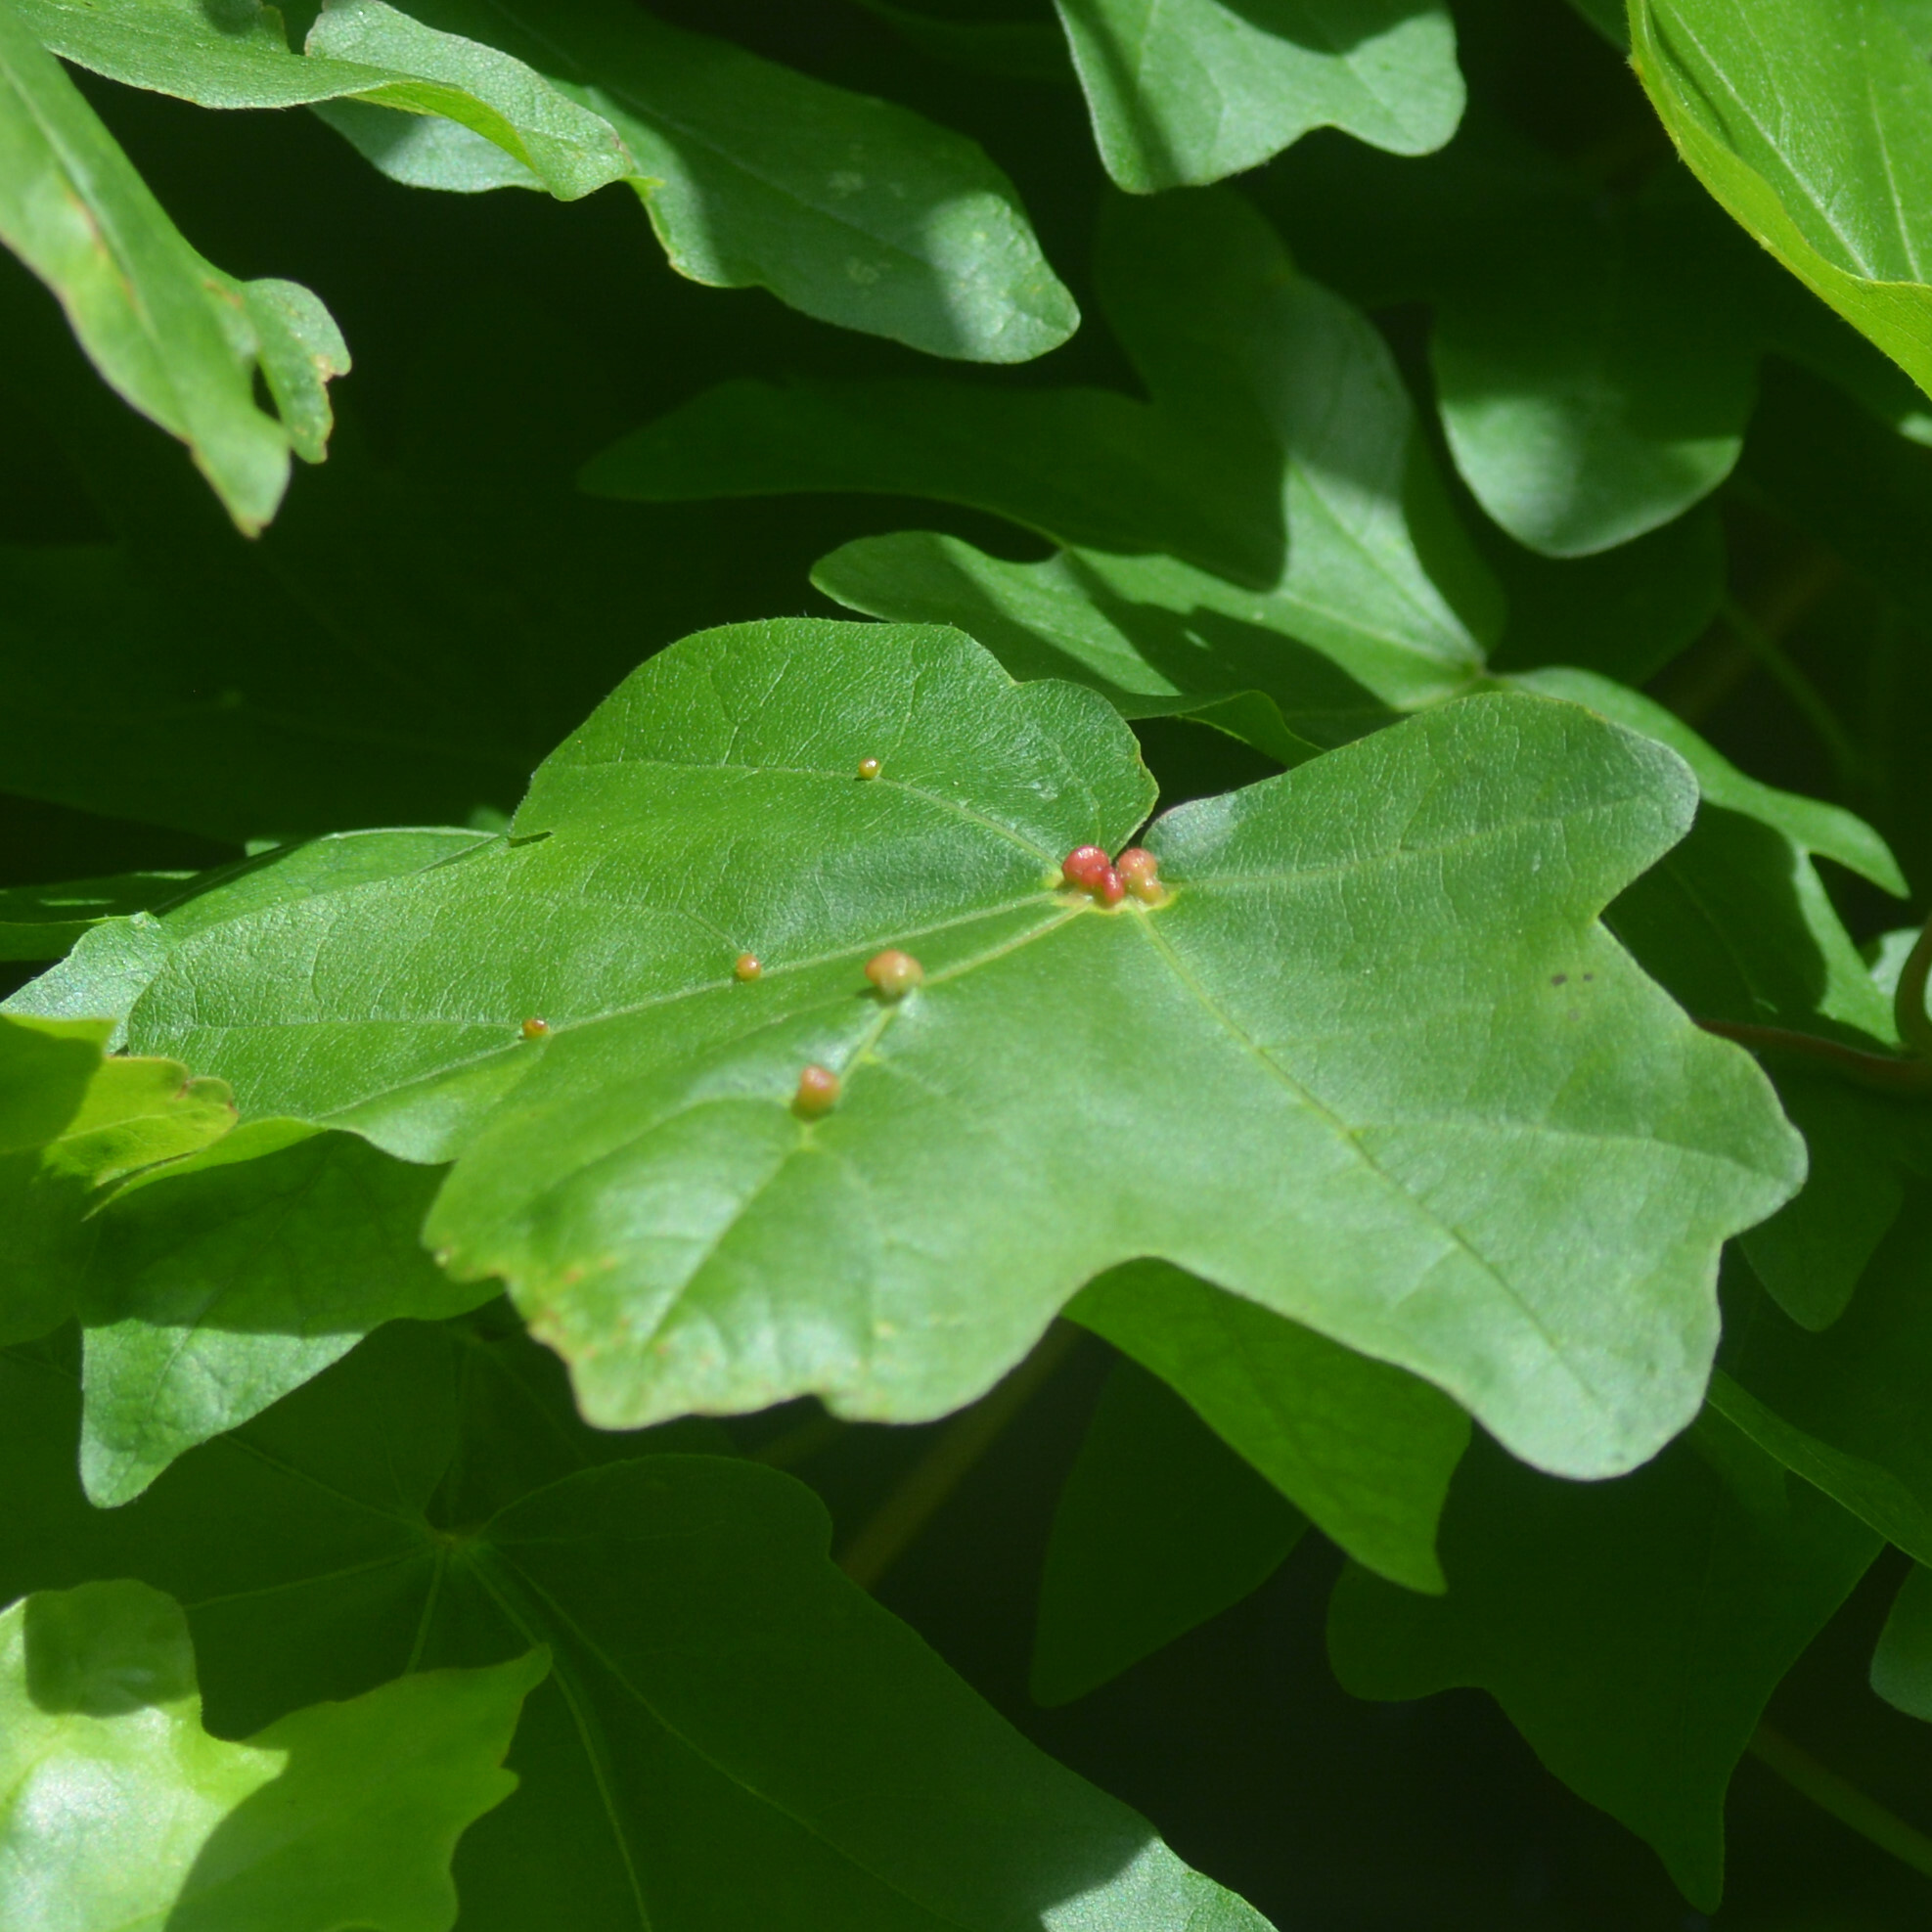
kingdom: Animalia
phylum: Arthropoda
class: Arachnida
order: Trombidiformes
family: Eriophyidae
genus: Aceria
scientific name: Aceria macrochelus
